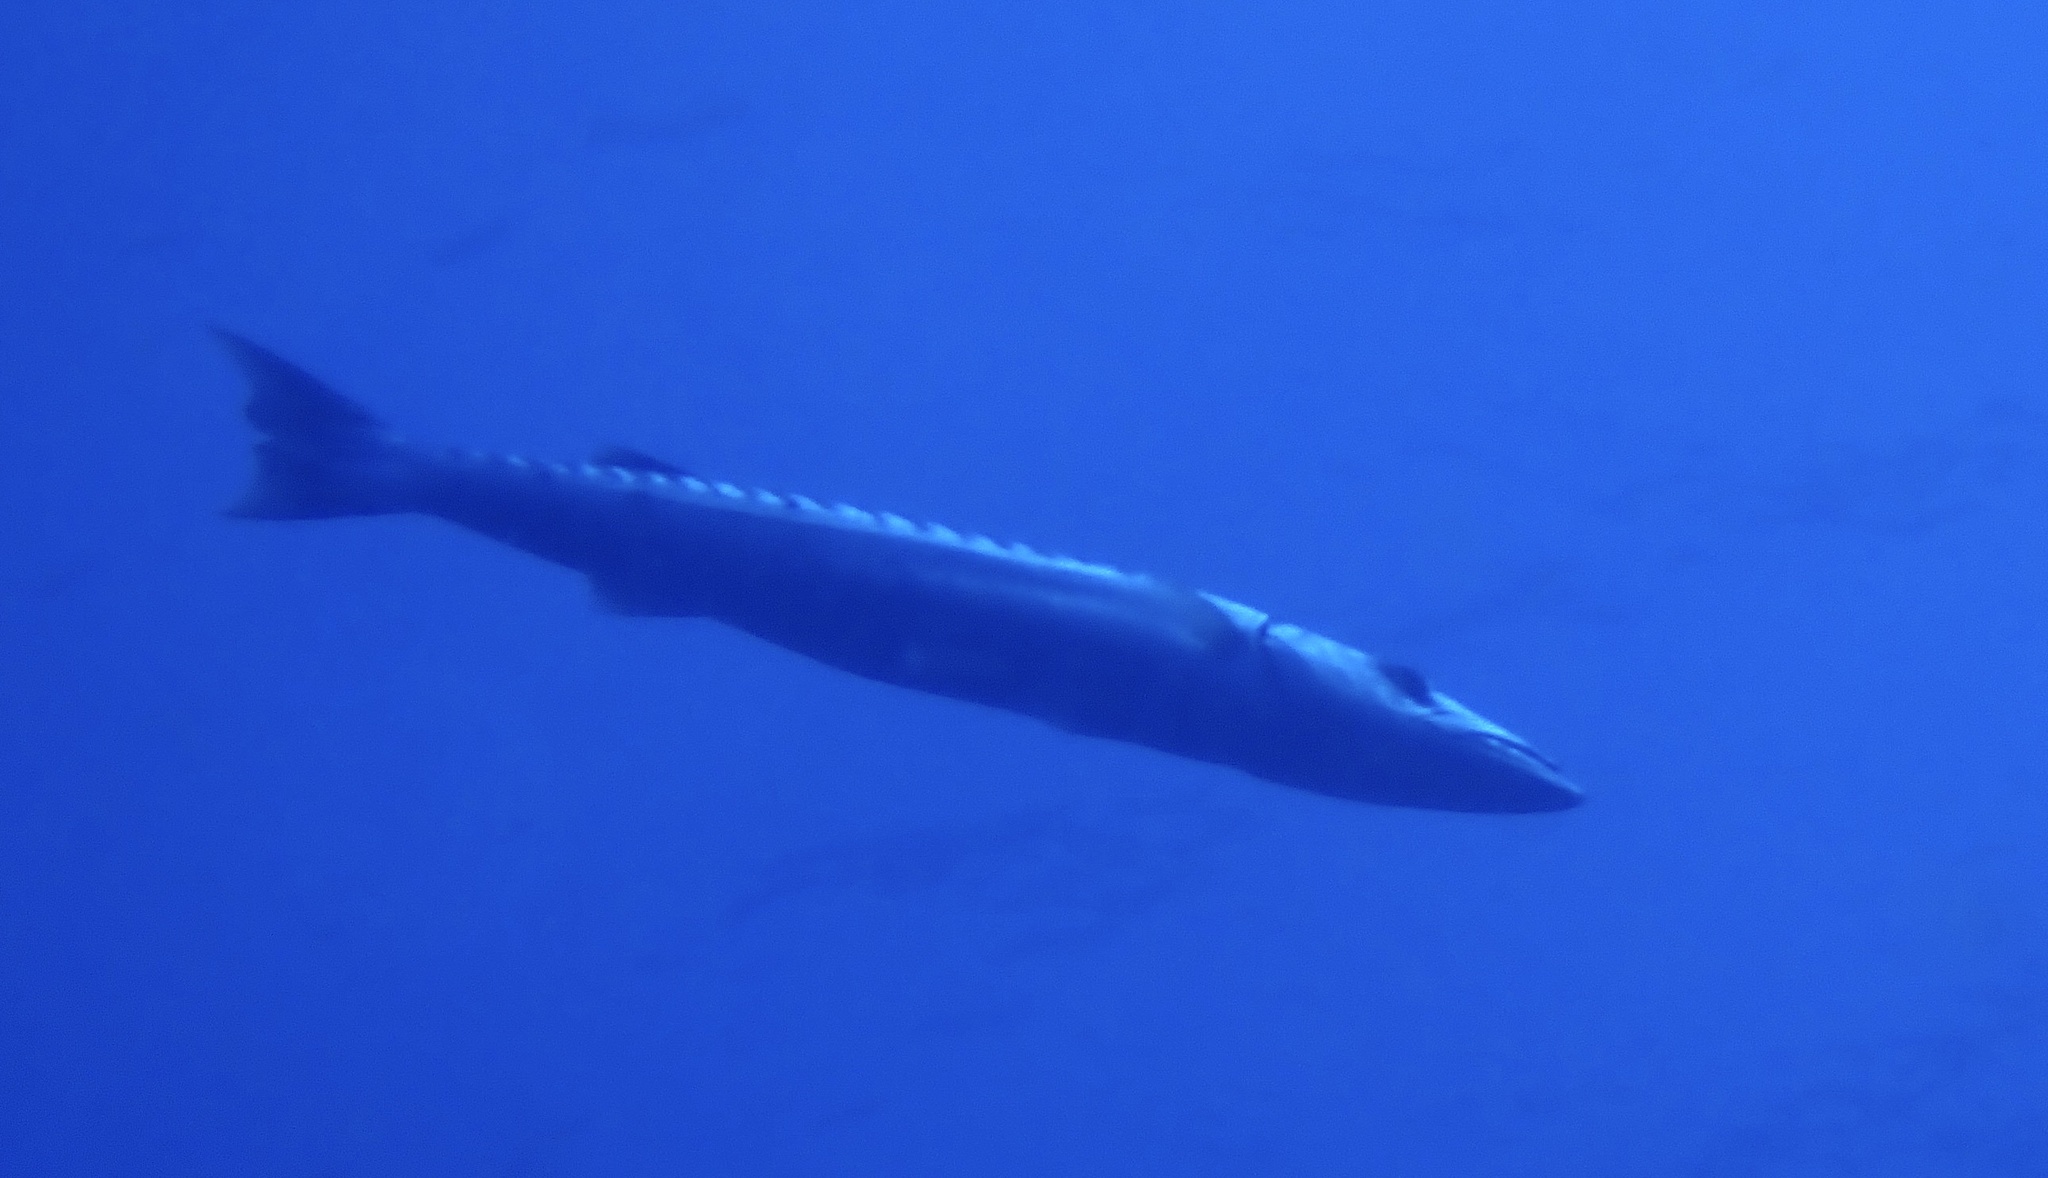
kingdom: Animalia
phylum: Chordata
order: Perciformes
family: Sphyraenidae
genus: Sphyraena
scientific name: Sphyraena barracuda
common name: Great barracuda
